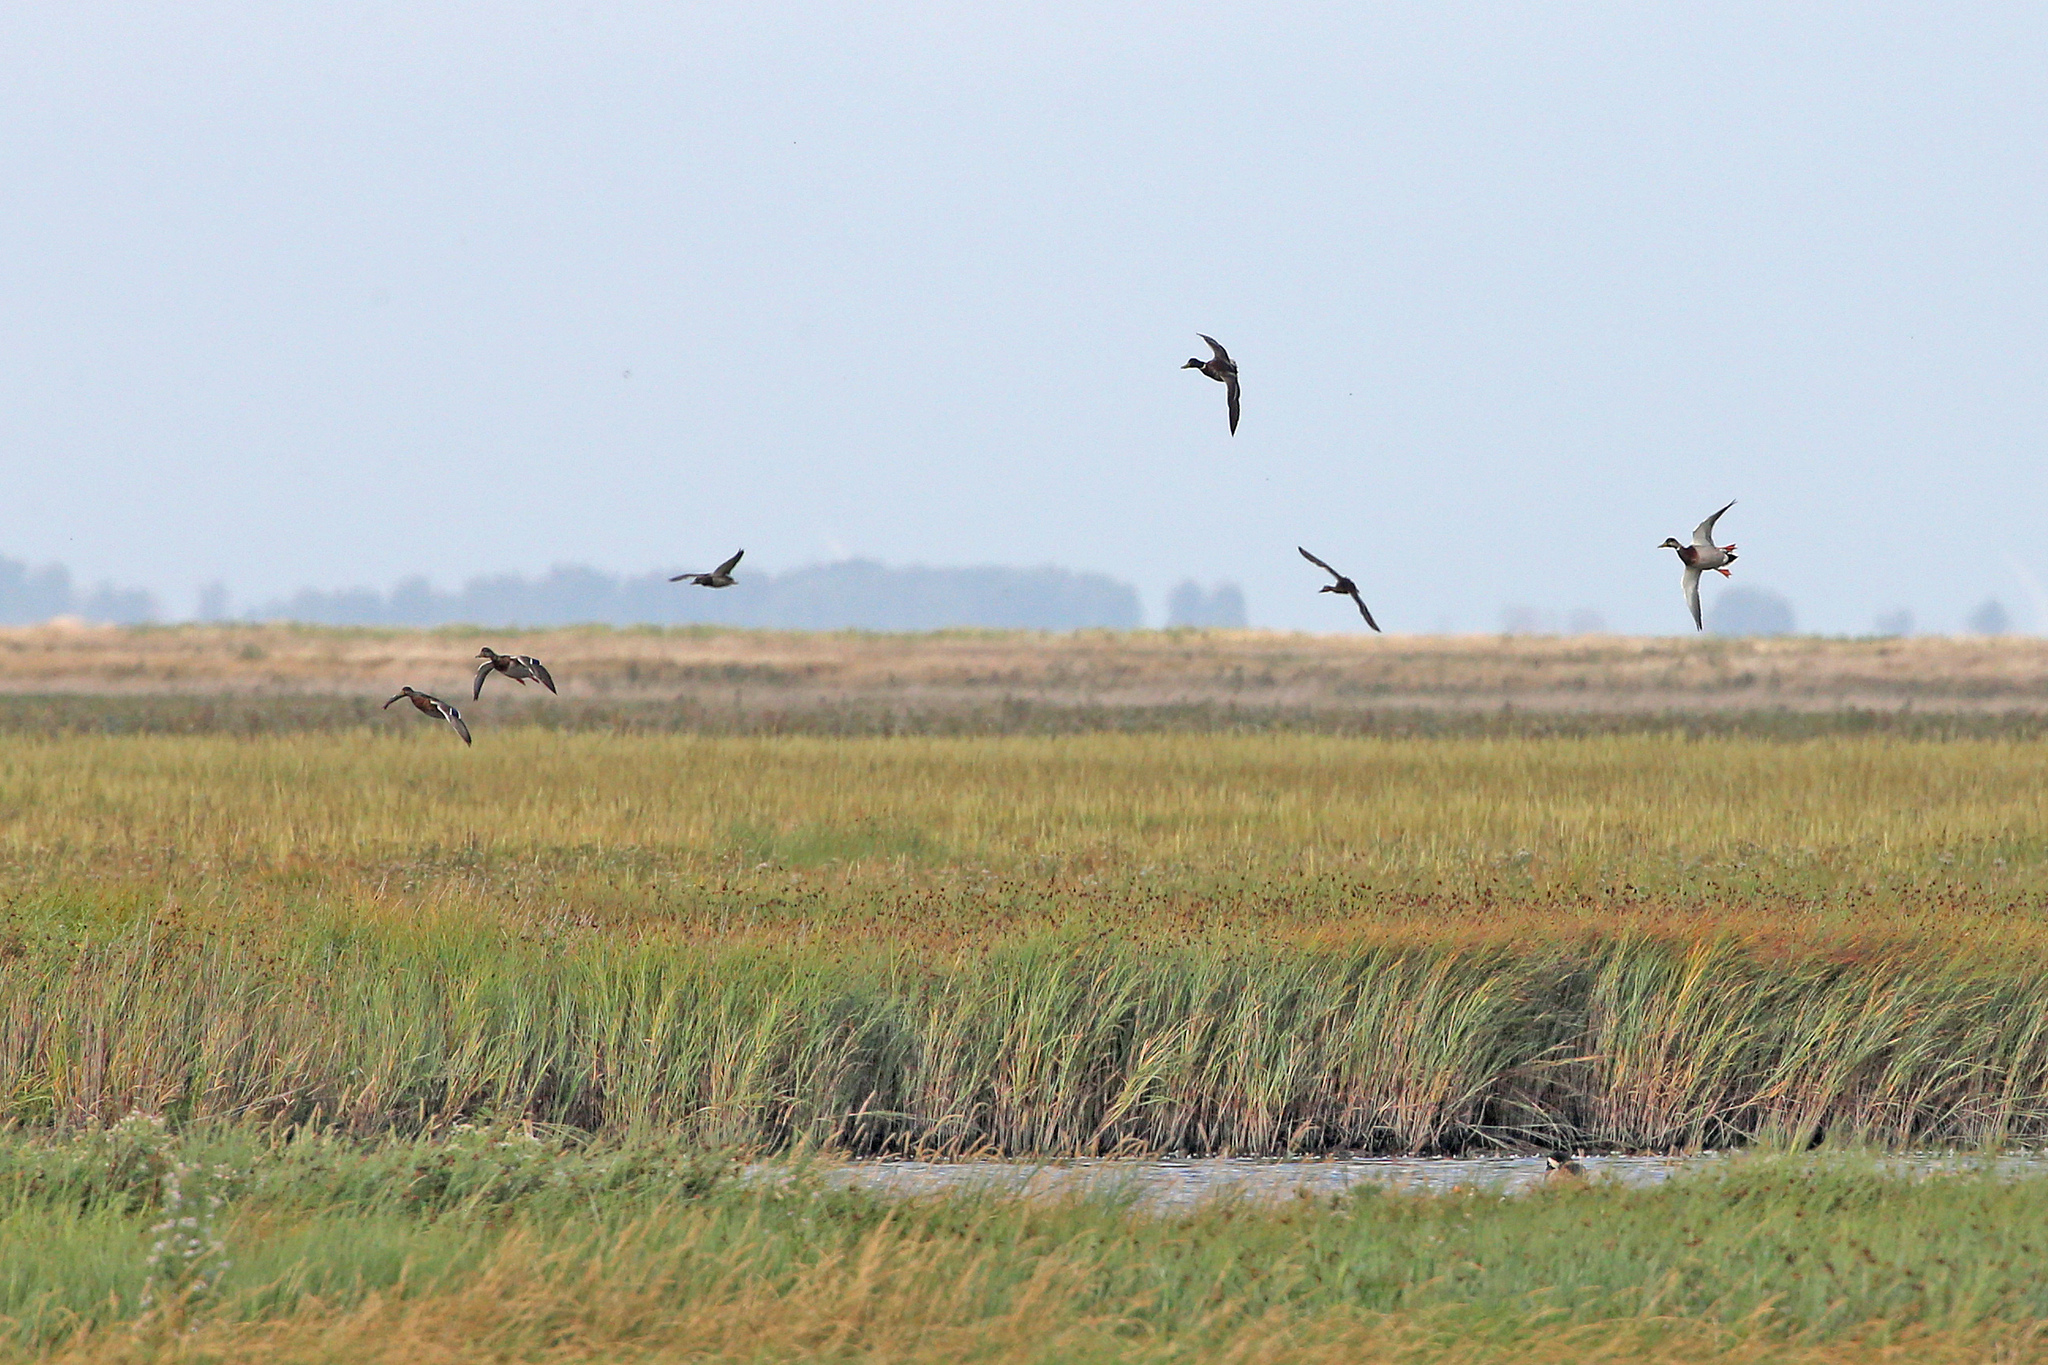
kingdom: Animalia
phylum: Chordata
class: Aves
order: Anseriformes
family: Anatidae
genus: Anas
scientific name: Anas platyrhynchos
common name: Mallard
